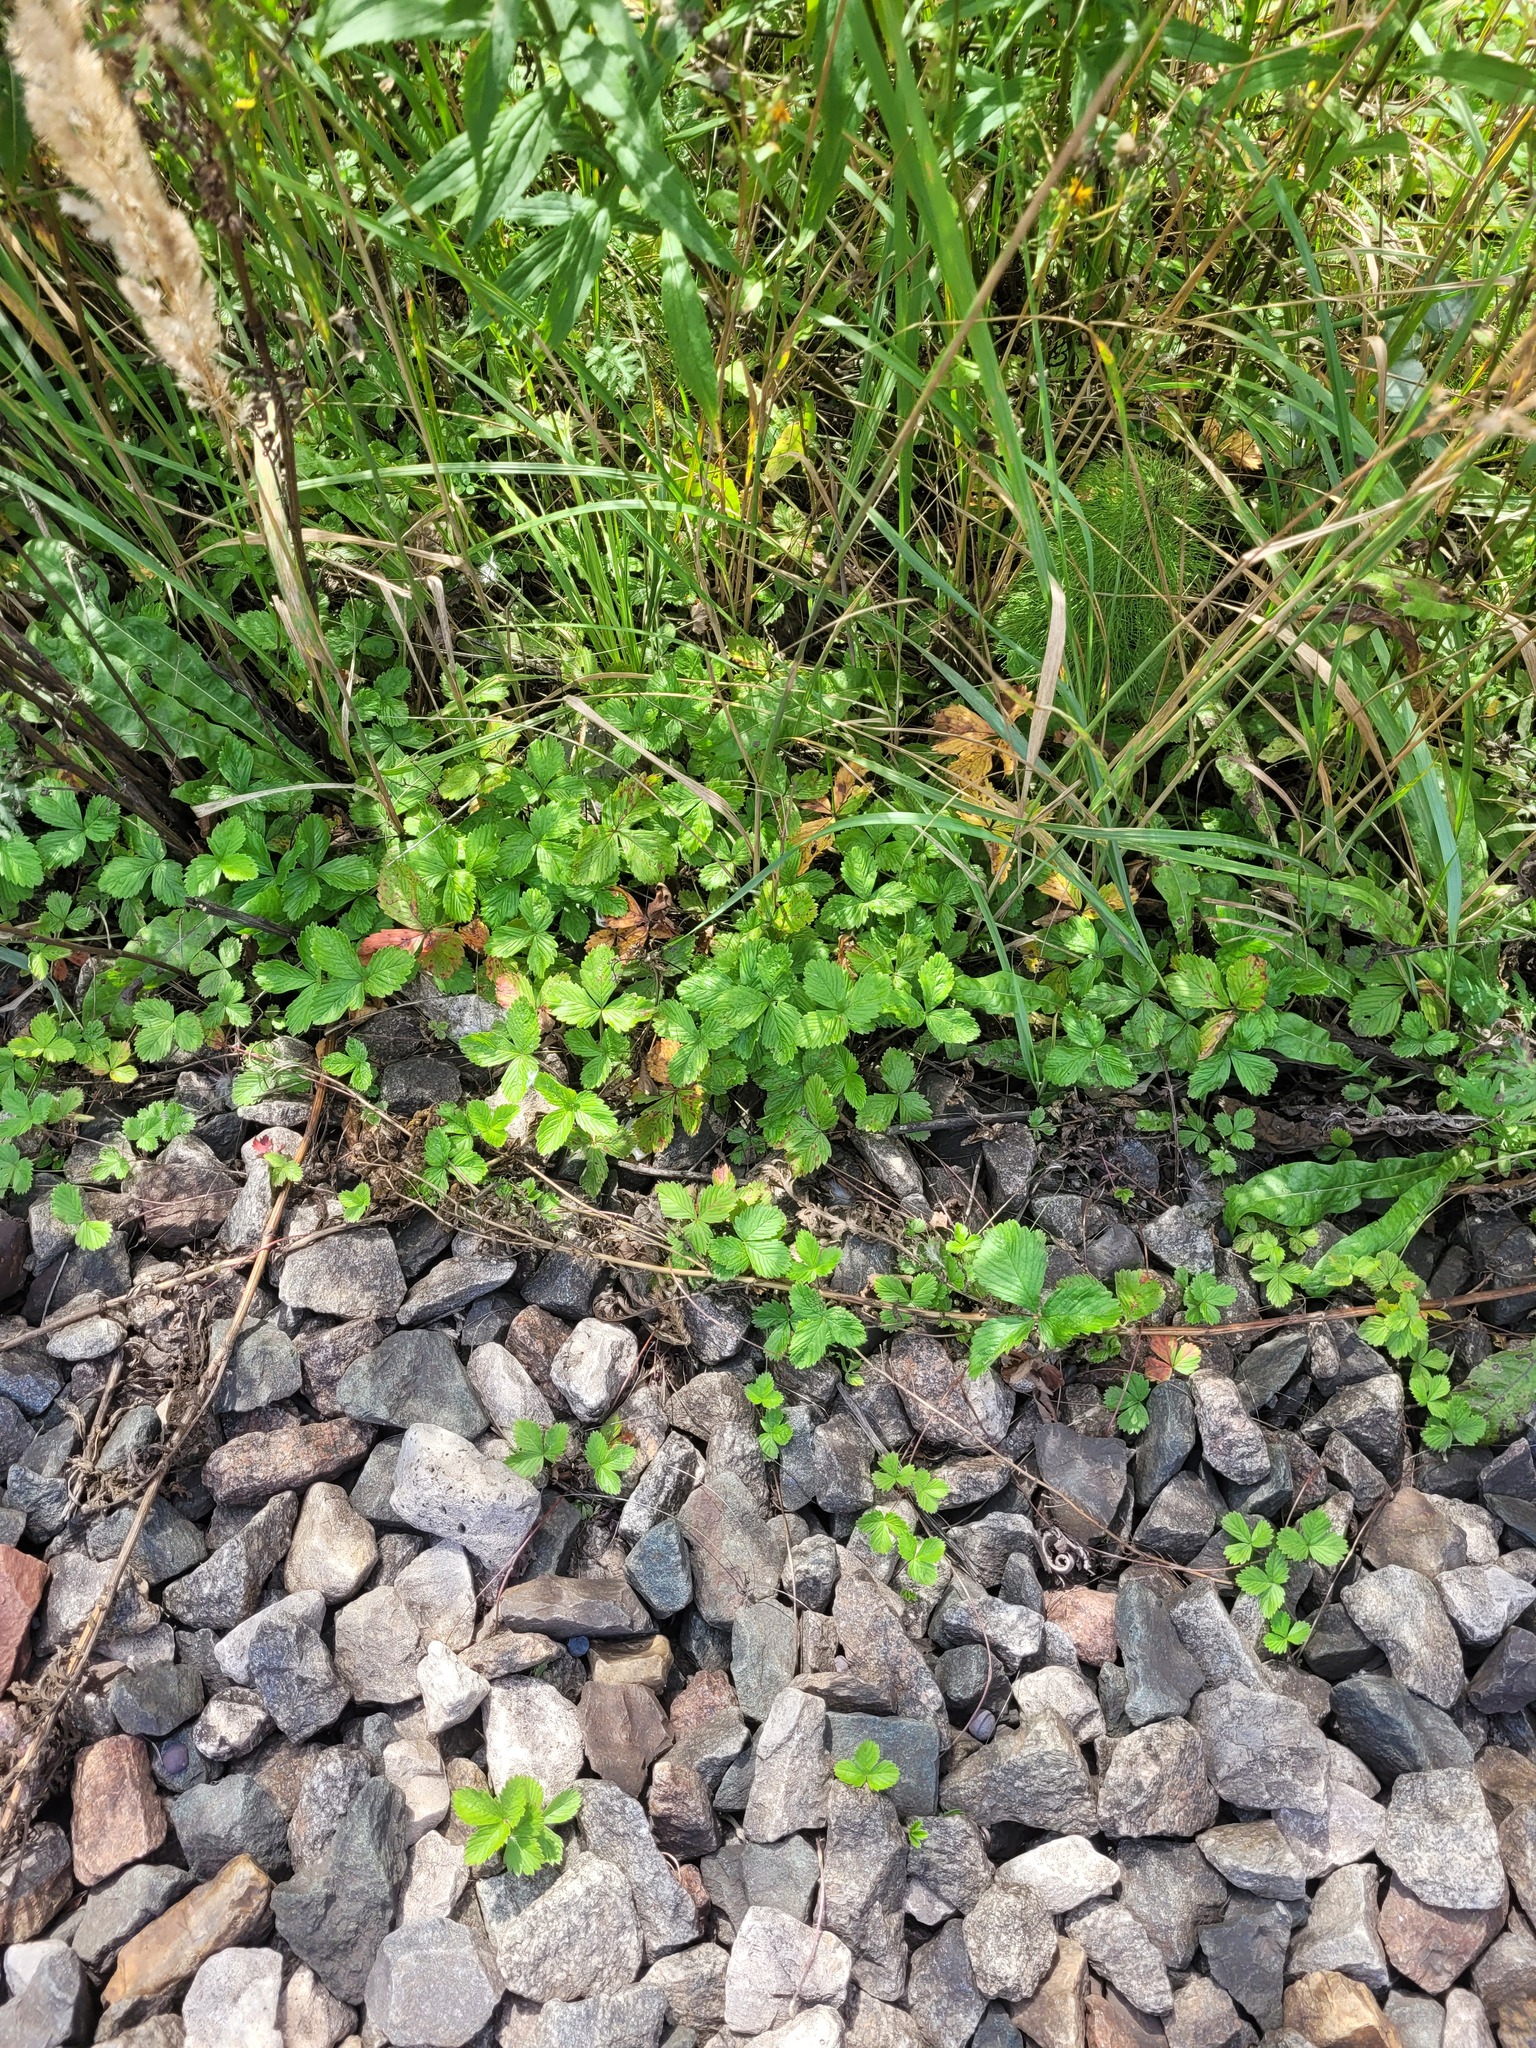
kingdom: Plantae
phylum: Tracheophyta
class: Magnoliopsida
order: Rosales
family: Rosaceae
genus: Fragaria
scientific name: Fragaria vesca
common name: Wild strawberry
